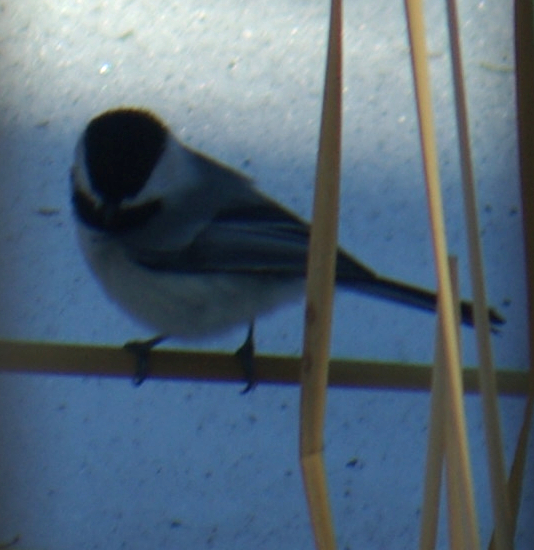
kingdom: Animalia
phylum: Chordata
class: Aves
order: Passeriformes
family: Paridae
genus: Poecile
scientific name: Poecile atricapillus
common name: Black-capped chickadee
